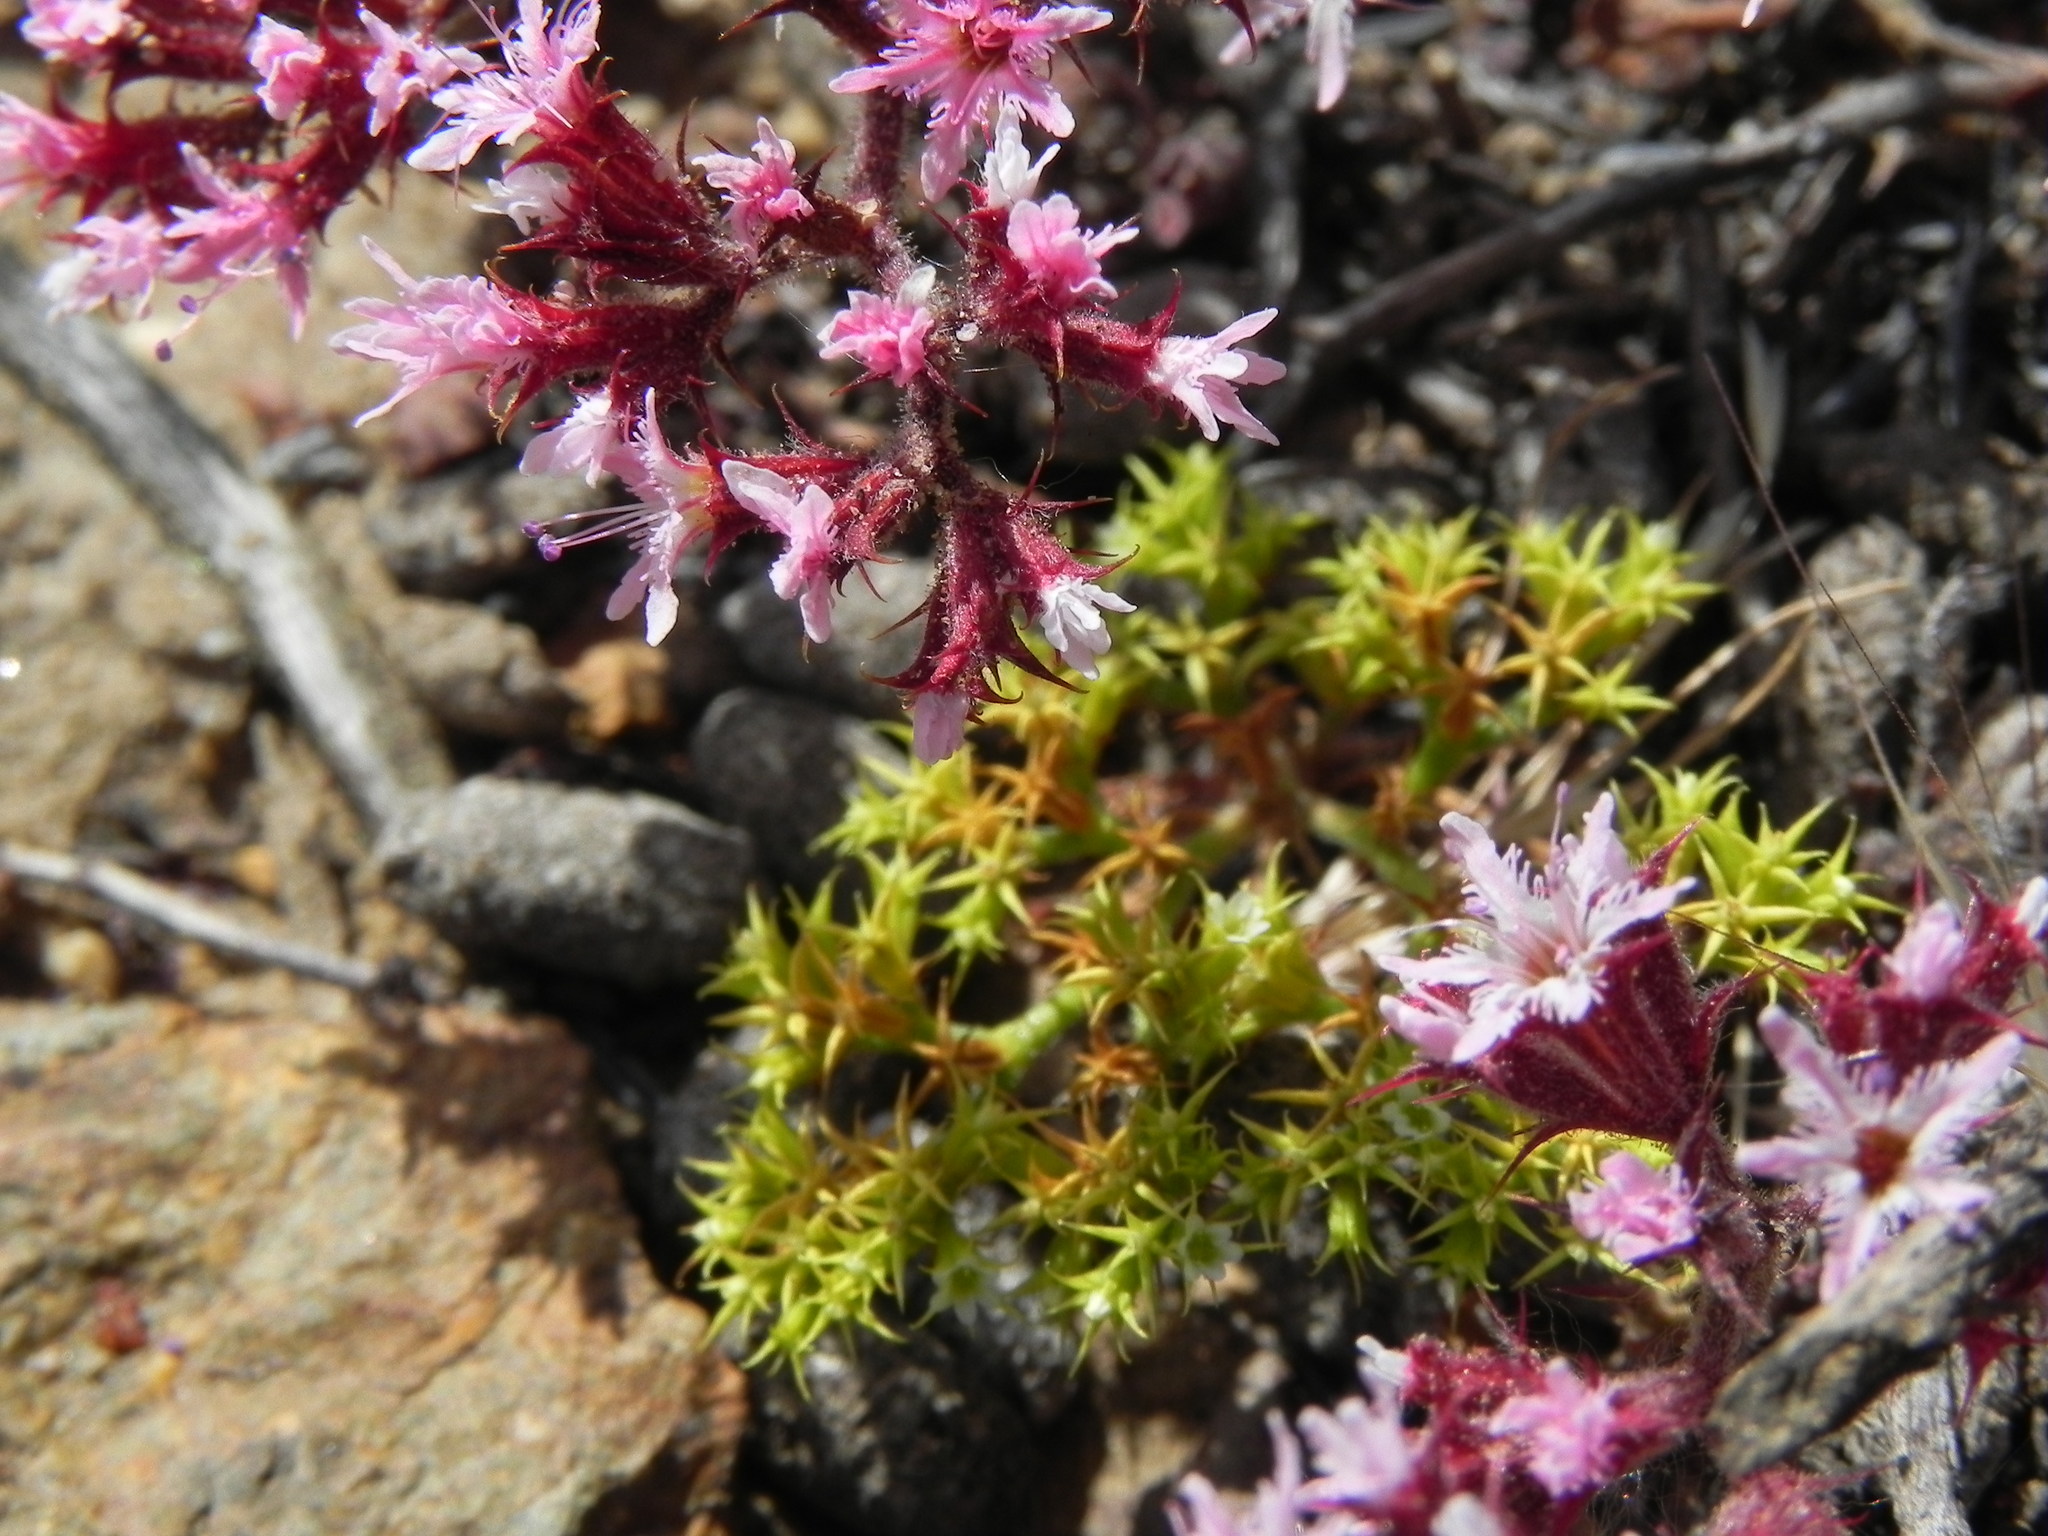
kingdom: Plantae
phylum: Tracheophyta
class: Magnoliopsida
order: Caryophyllales
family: Polygonaceae
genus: Chorizanthe
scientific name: Chorizanthe fimbriata
